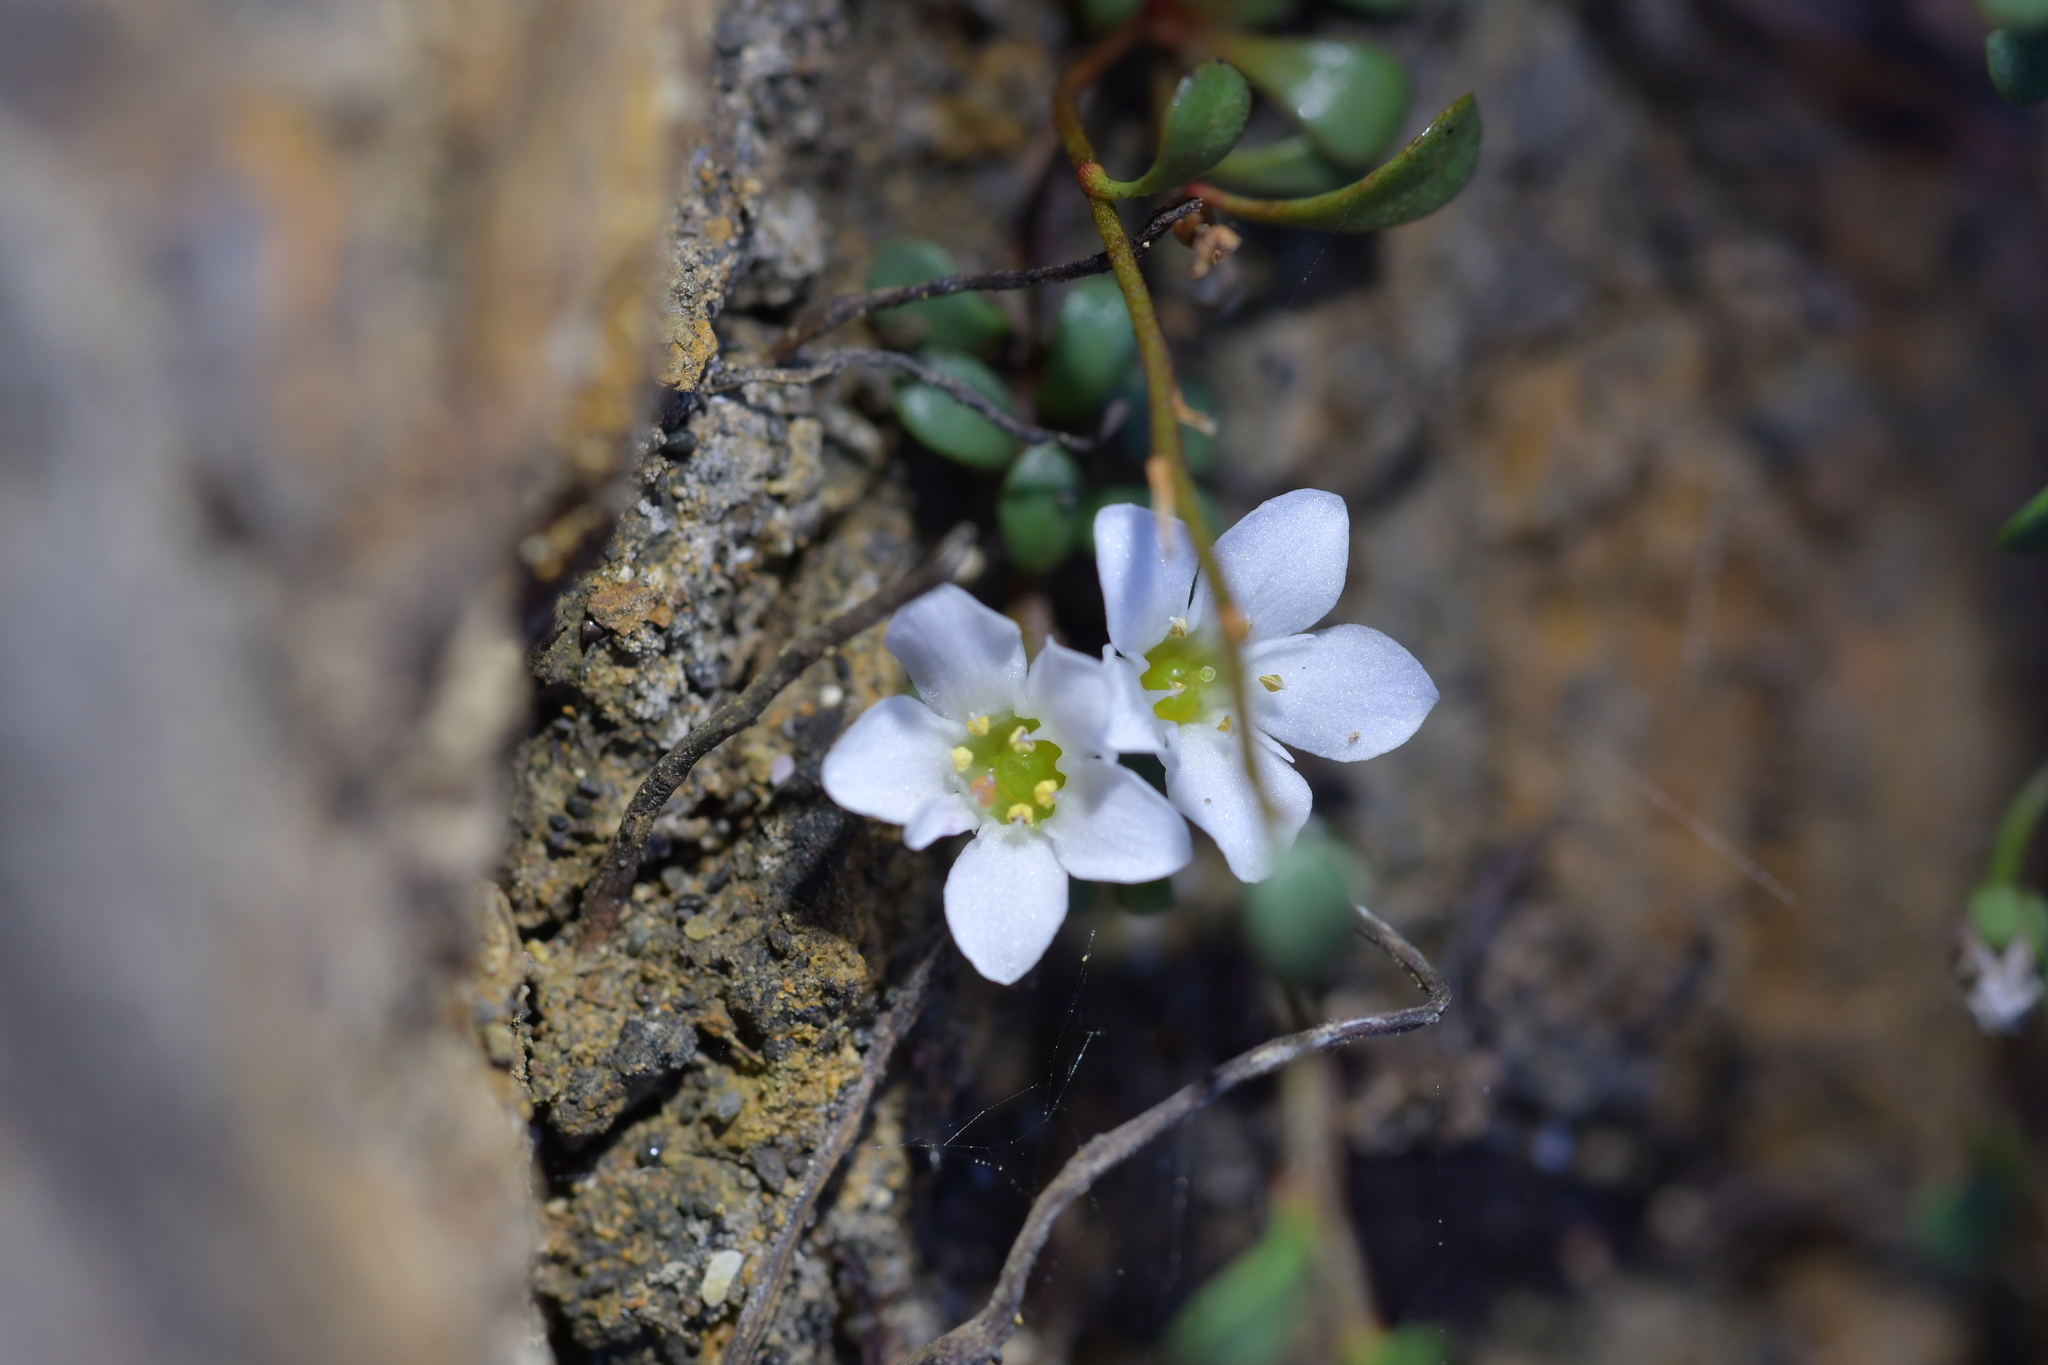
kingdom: Plantae
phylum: Tracheophyta
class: Magnoliopsida
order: Ericales
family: Primulaceae
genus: Samolus
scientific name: Samolus repens
